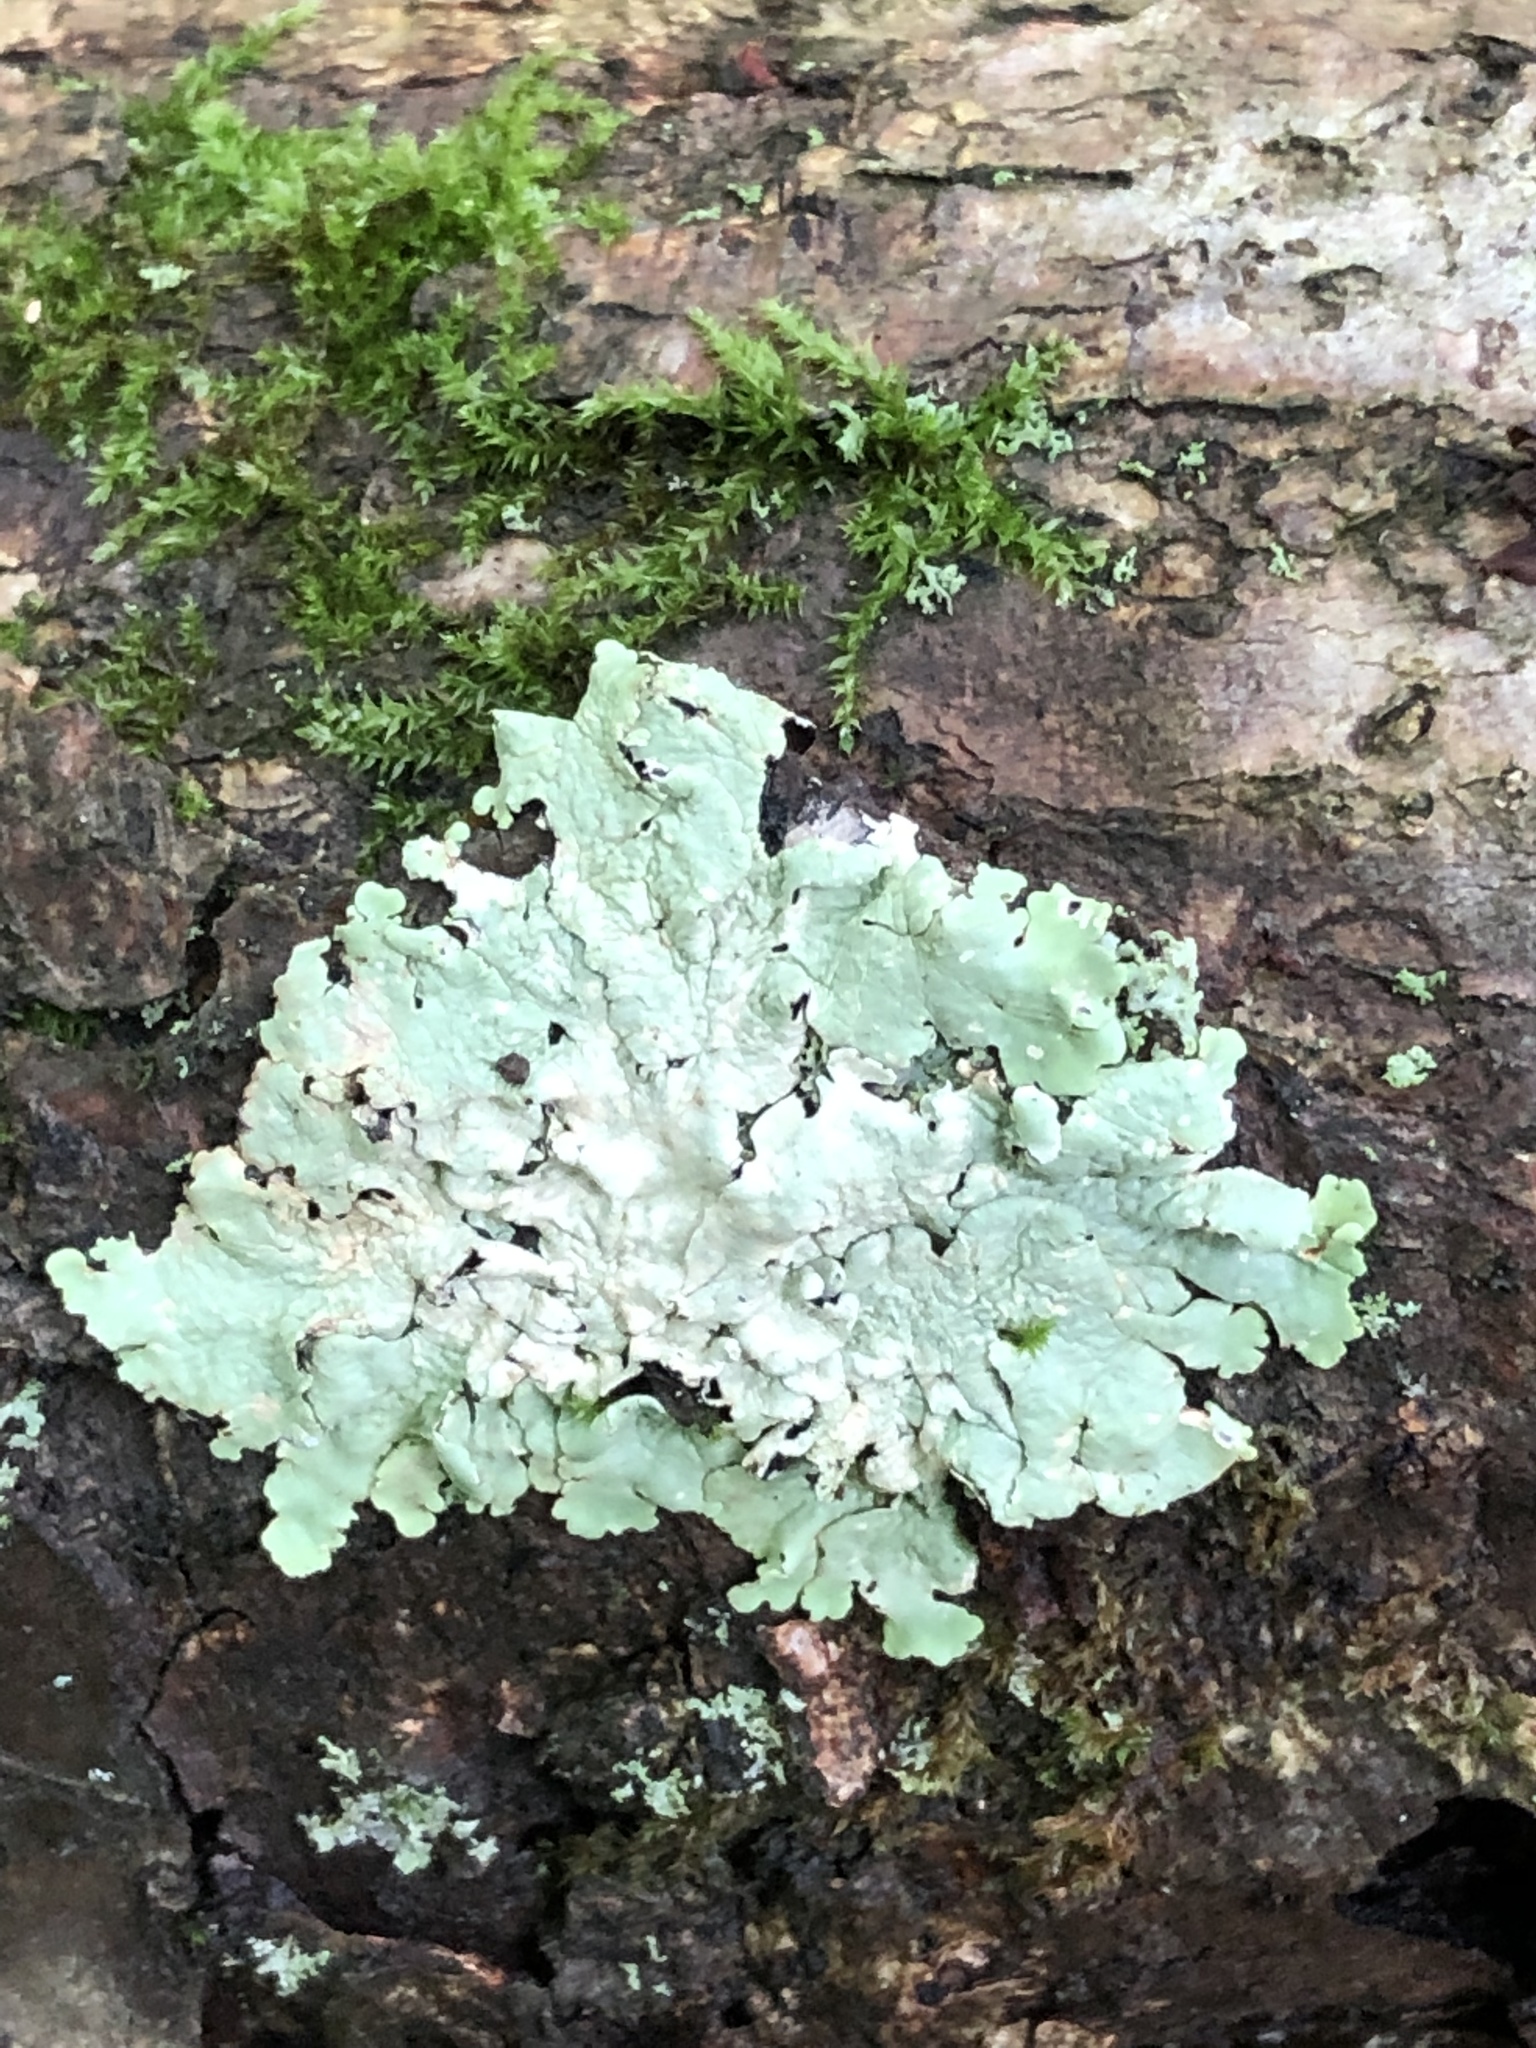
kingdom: Fungi
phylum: Ascomycota
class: Lecanoromycetes
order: Lecanorales
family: Parmeliaceae
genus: Flavoparmelia
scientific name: Flavoparmelia caperata
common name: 40-mile per hour lichen
